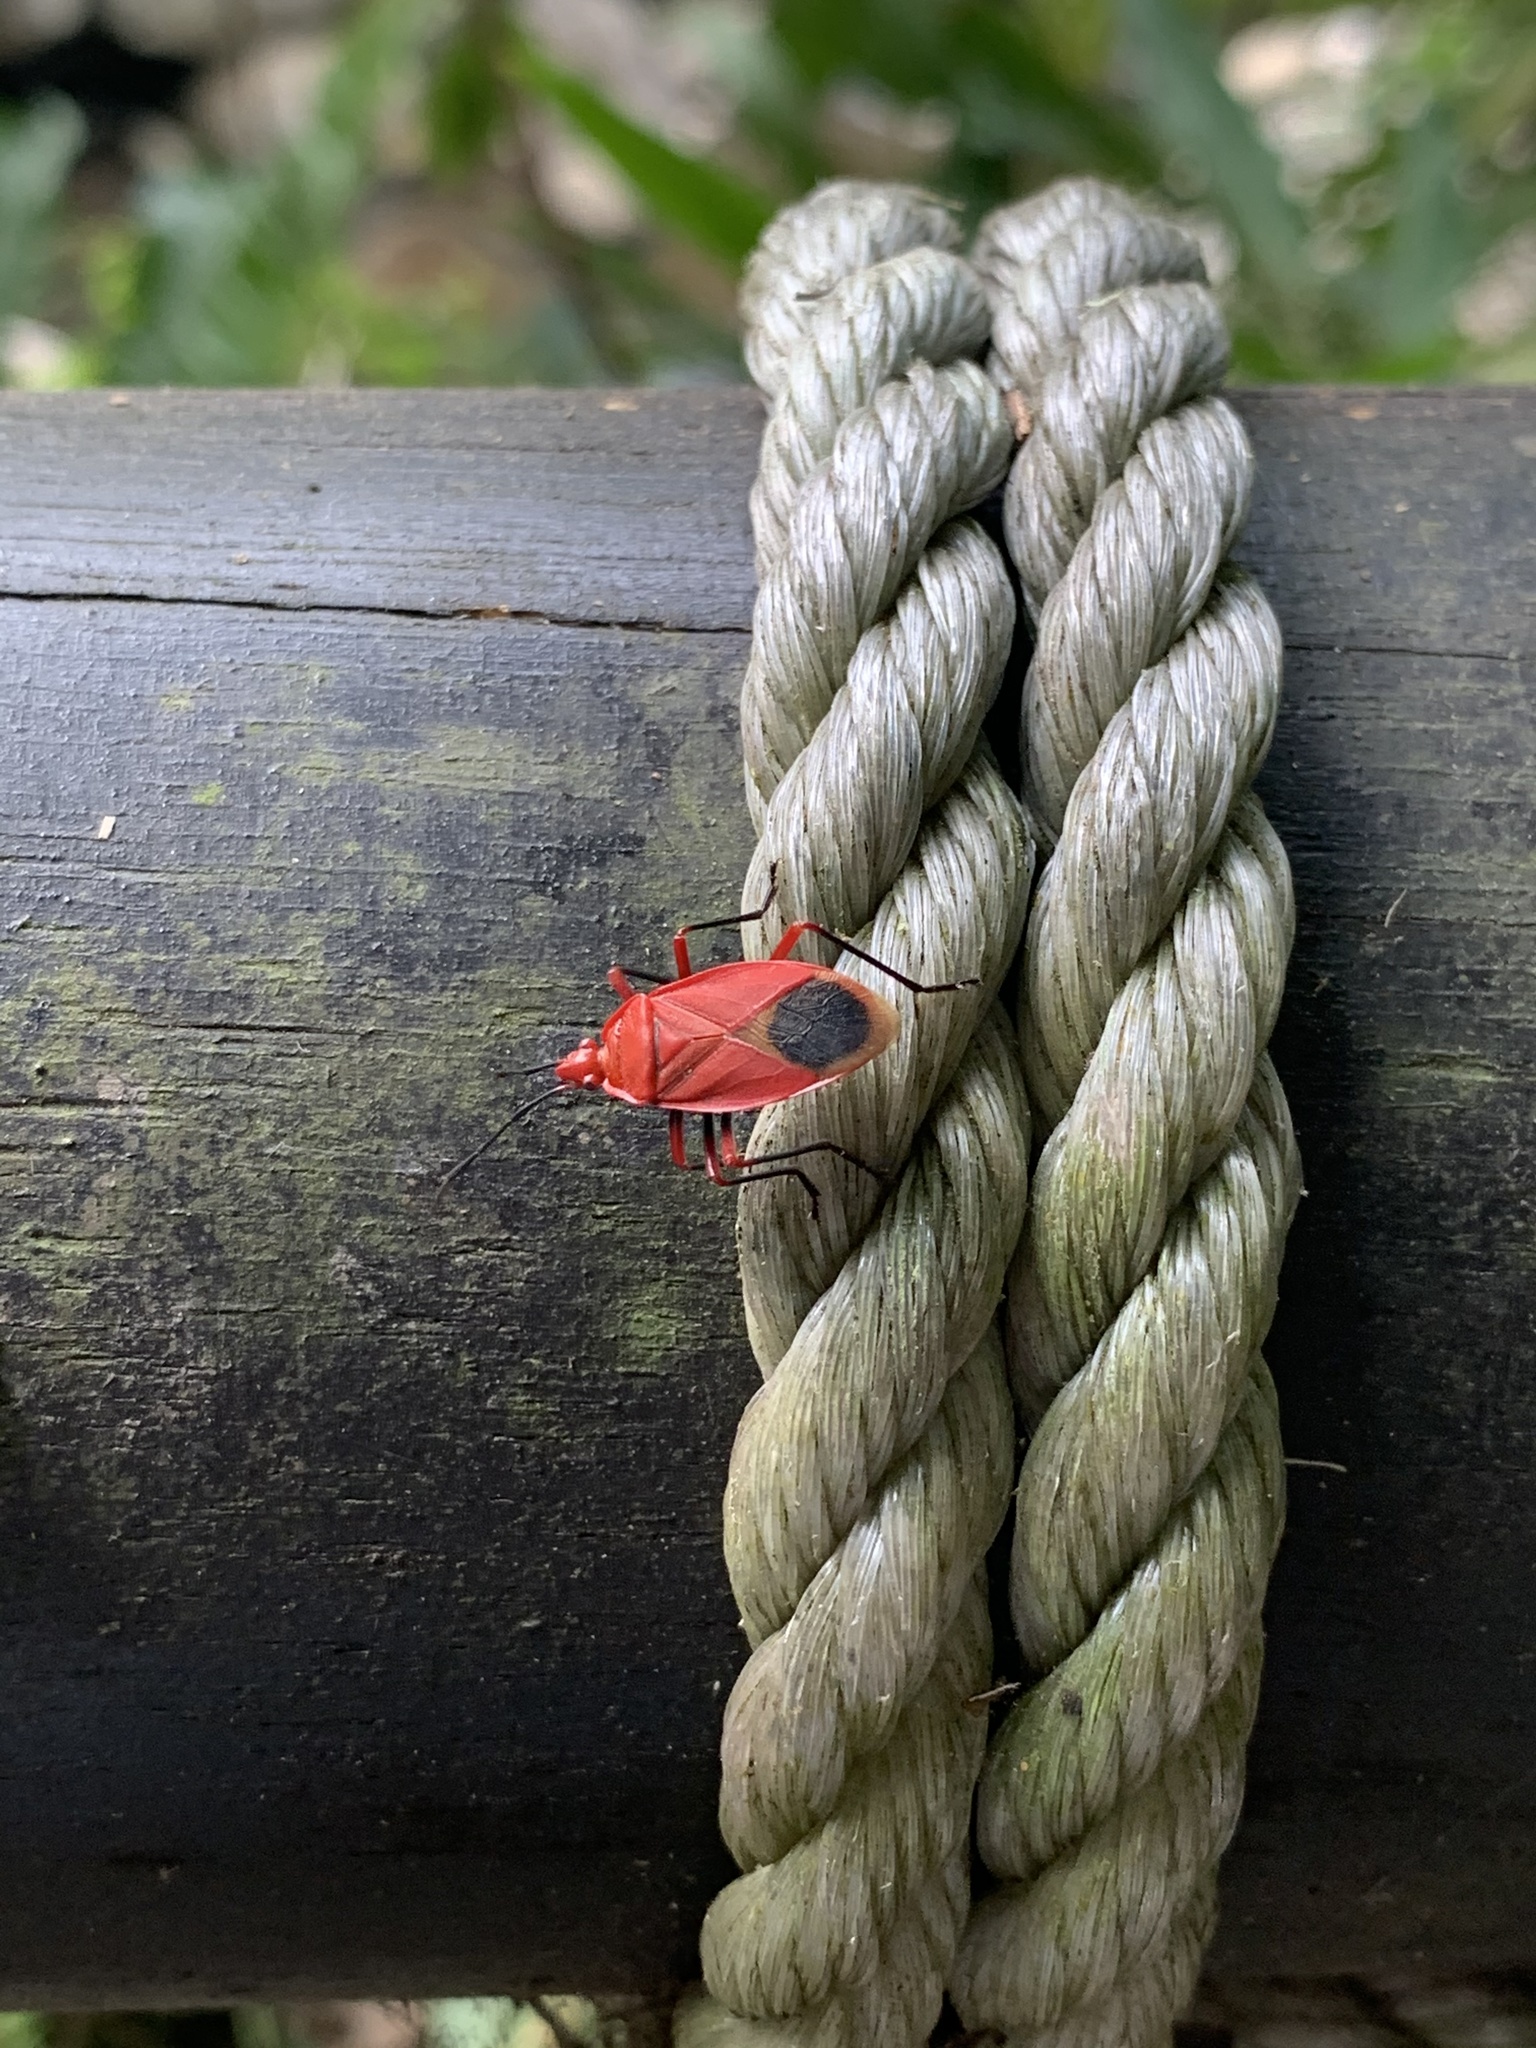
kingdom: Animalia
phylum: Arthropoda
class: Insecta
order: Hemiptera
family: Pyrrhocoridae
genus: Dindymus
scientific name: Dindymus brevis
